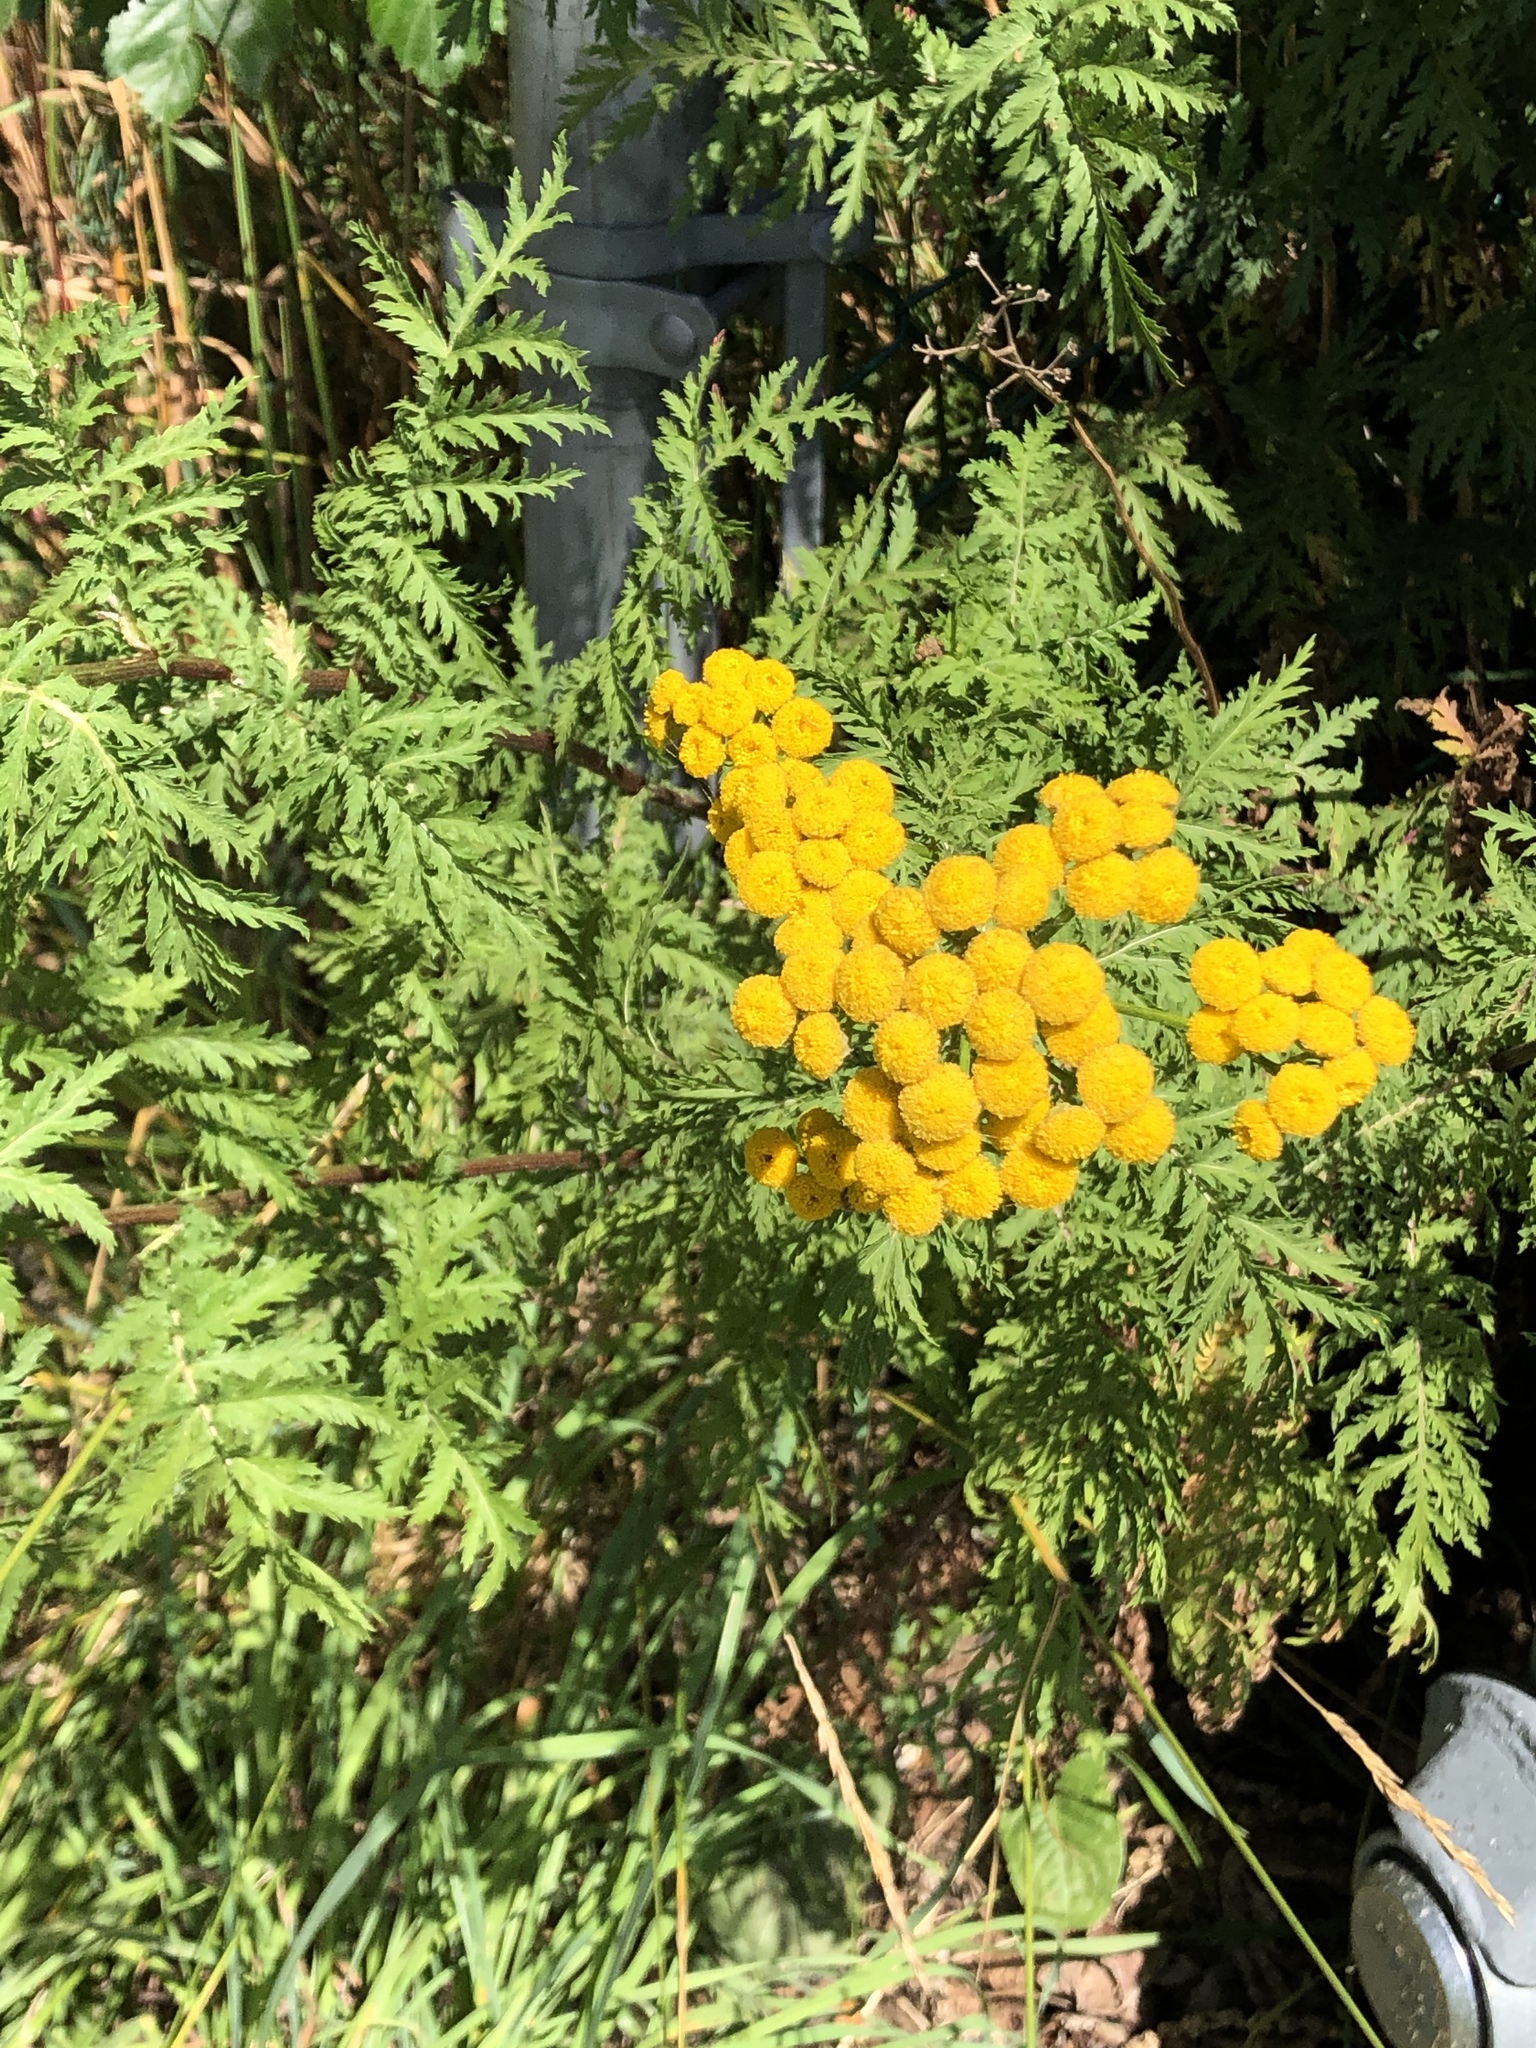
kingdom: Plantae
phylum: Tracheophyta
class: Magnoliopsida
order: Asterales
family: Asteraceae
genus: Tanacetum
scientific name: Tanacetum vulgare
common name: Common tansy
